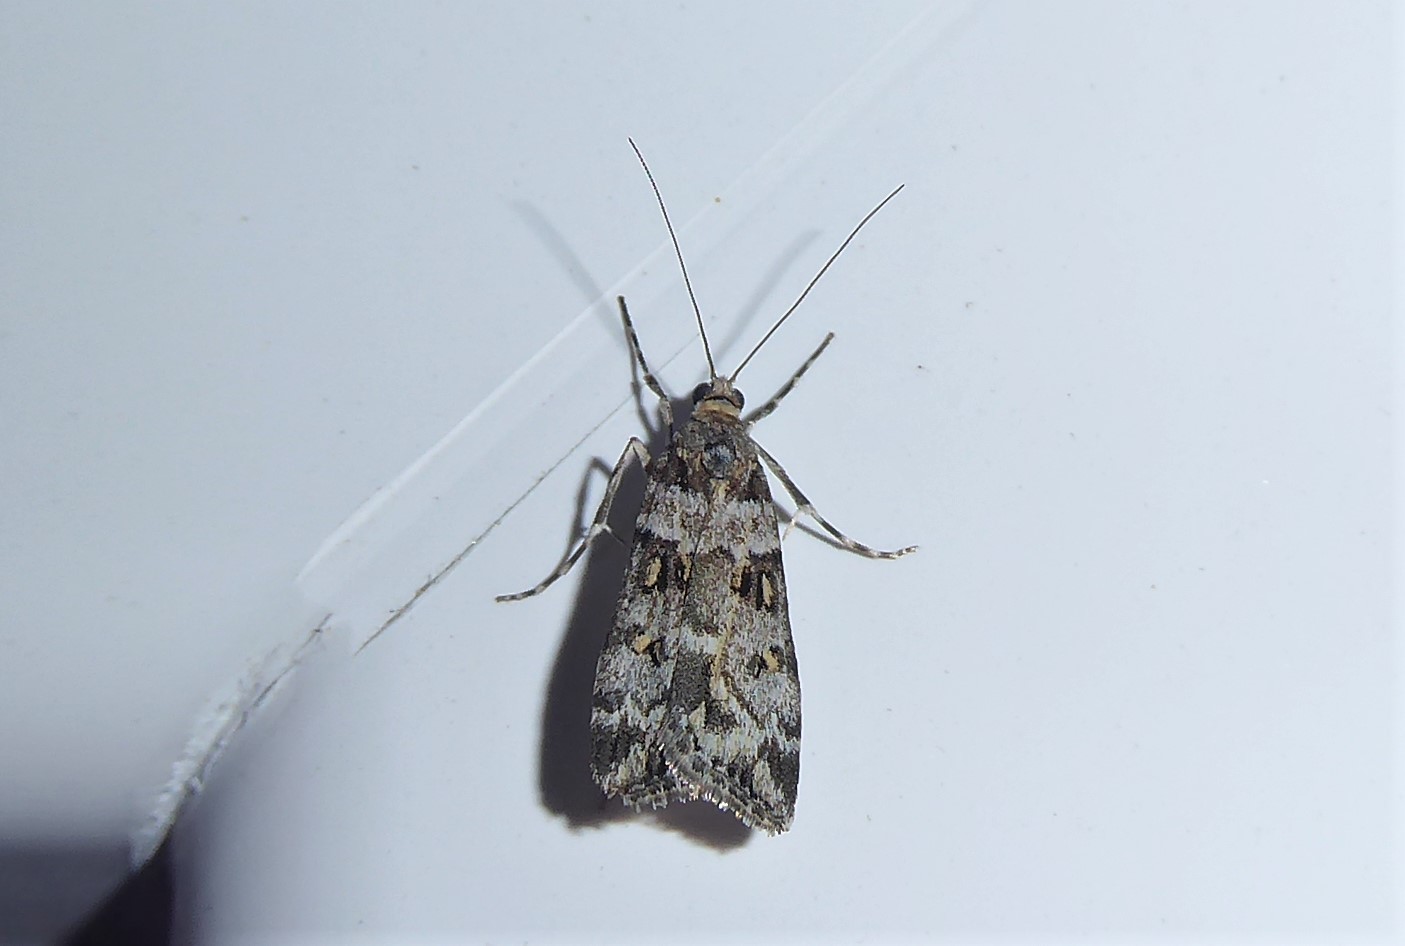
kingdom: Animalia
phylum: Arthropoda
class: Insecta
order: Lepidoptera
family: Crambidae
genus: Eudonia
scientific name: Eudonia diphtheralis
